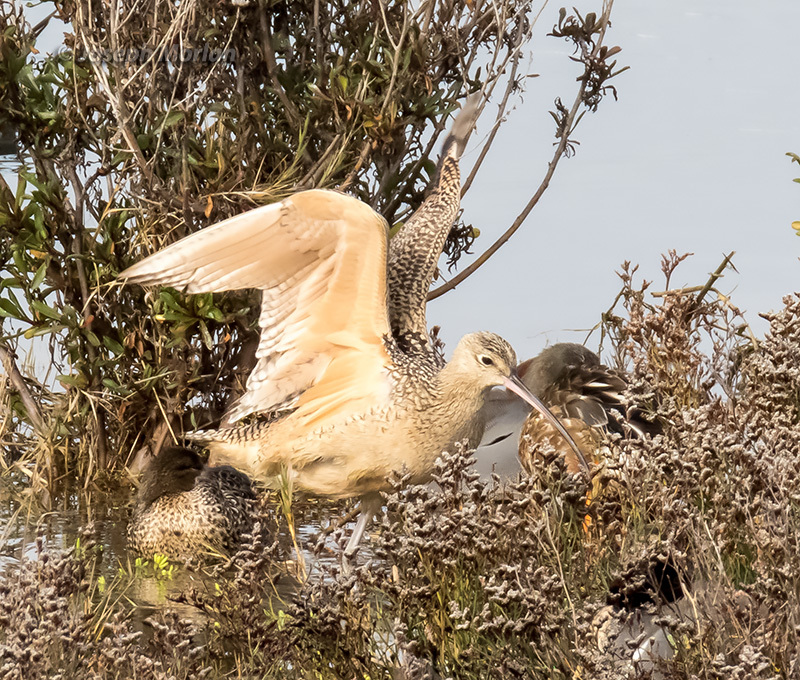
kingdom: Animalia
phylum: Chordata
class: Aves
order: Charadriiformes
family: Scolopacidae
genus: Numenius
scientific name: Numenius americanus
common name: Long-billed curlew
